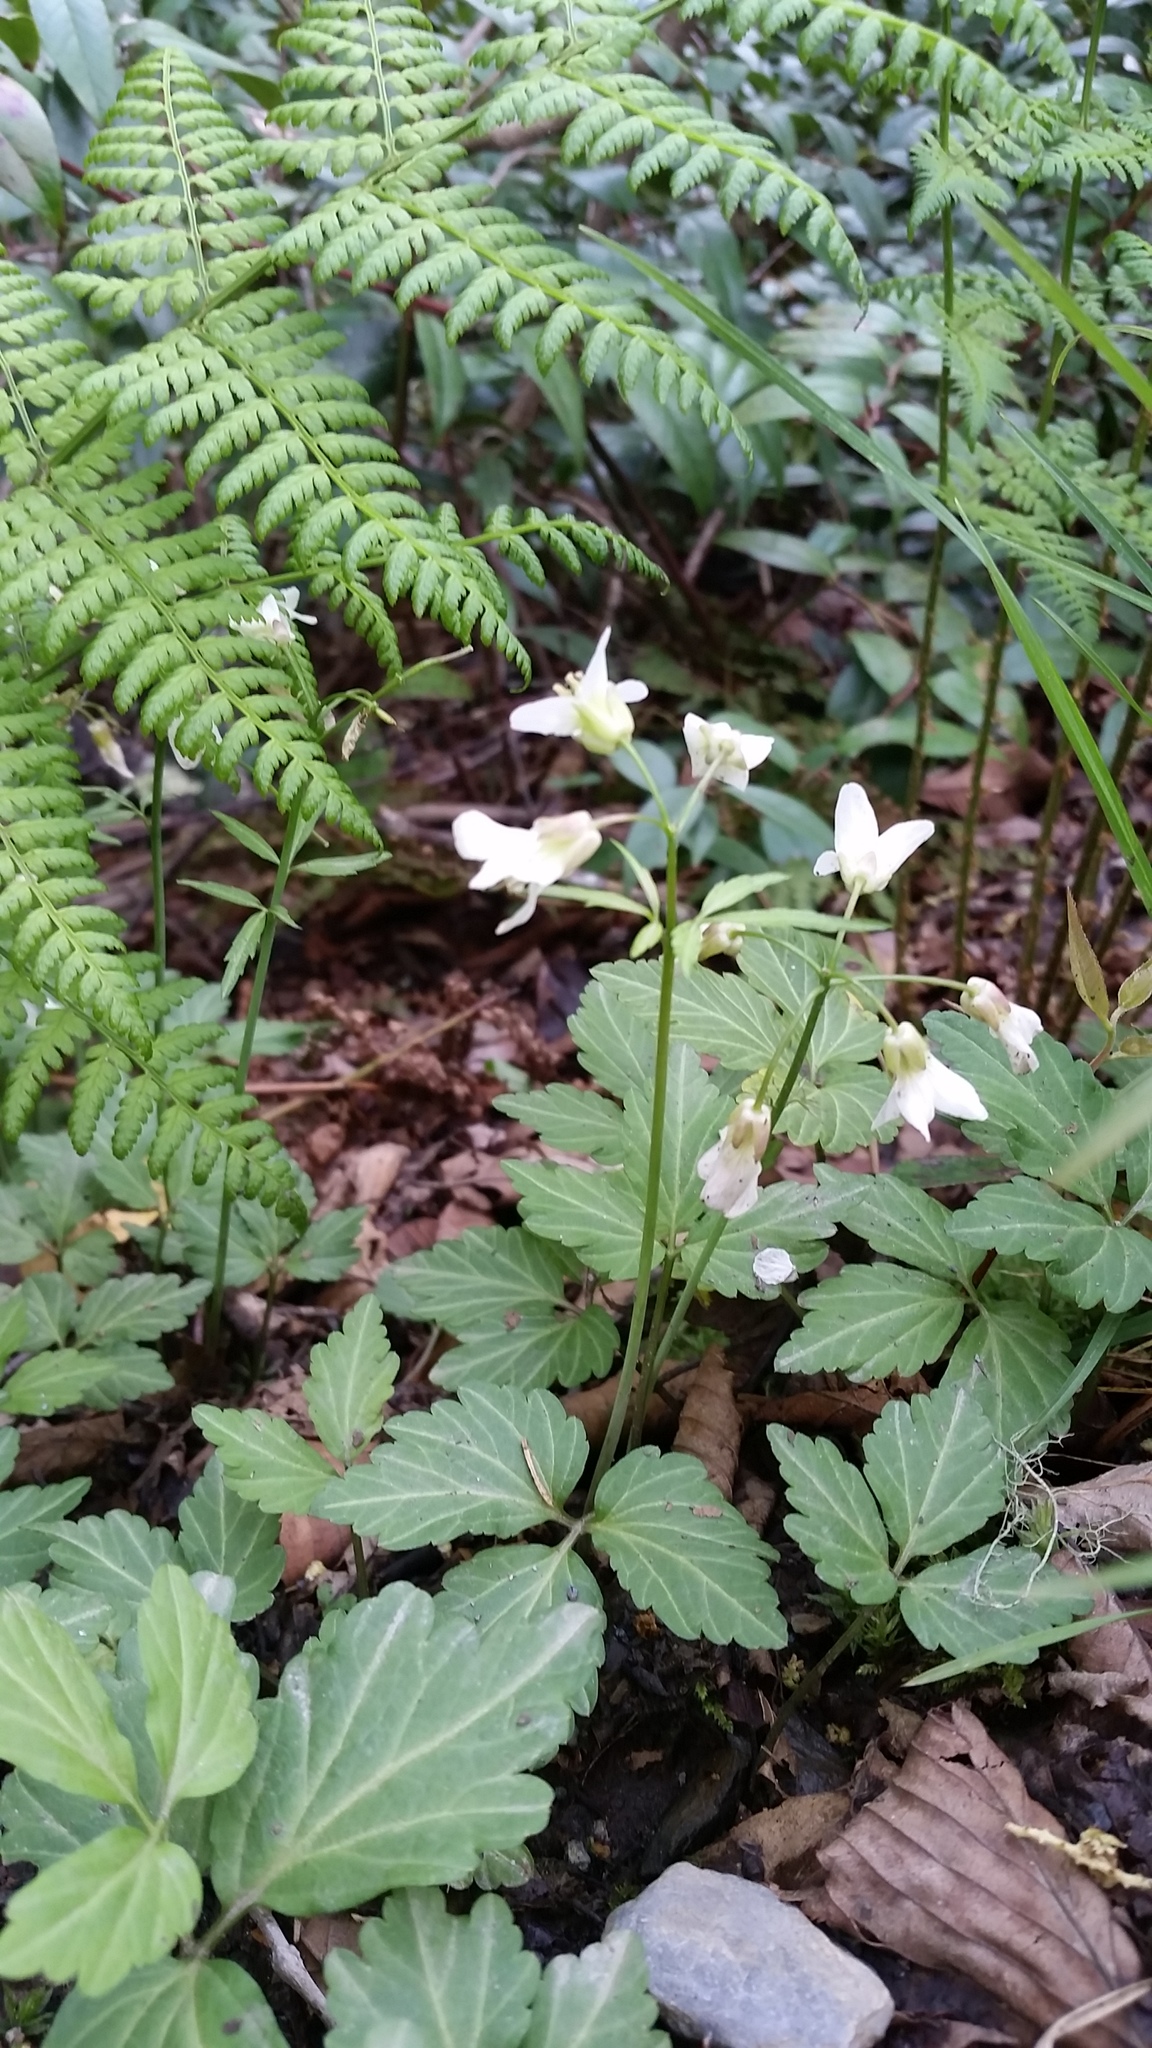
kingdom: Plantae
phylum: Tracheophyta
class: Magnoliopsida
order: Brassicales
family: Brassicaceae
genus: Cardamine
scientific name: Cardamine diphylla
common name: Broad-leaved toothwort
